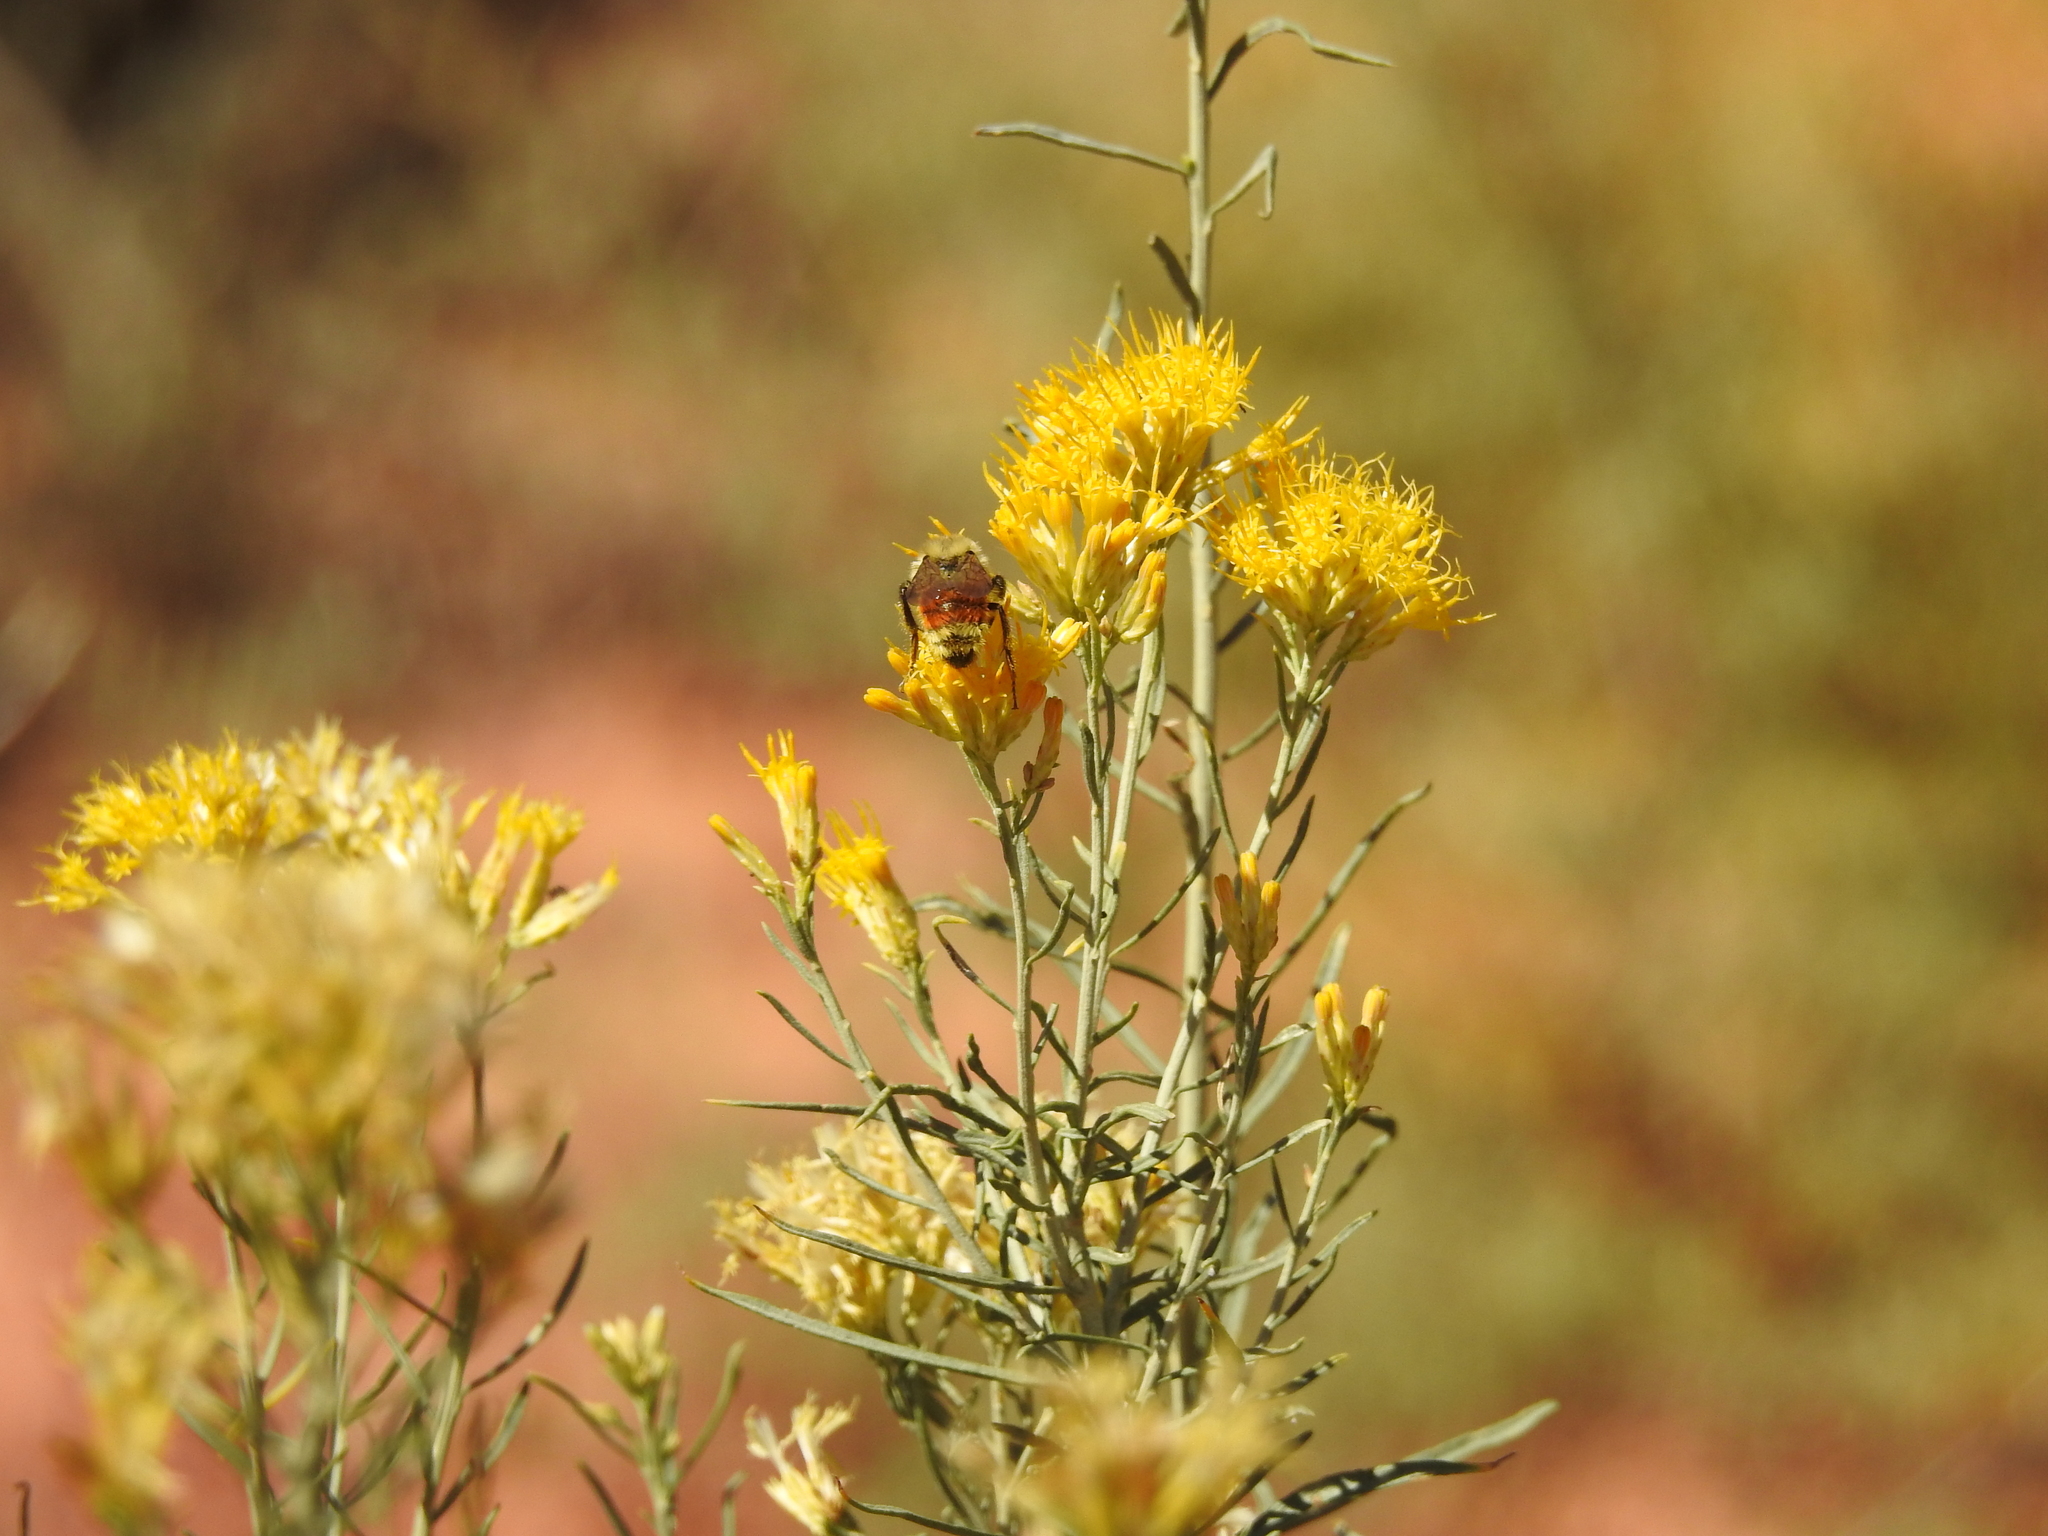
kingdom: Animalia
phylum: Arthropoda
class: Insecta
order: Hymenoptera
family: Apidae
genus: Bombus
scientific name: Bombus huntii
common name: Hunt bumble bee
